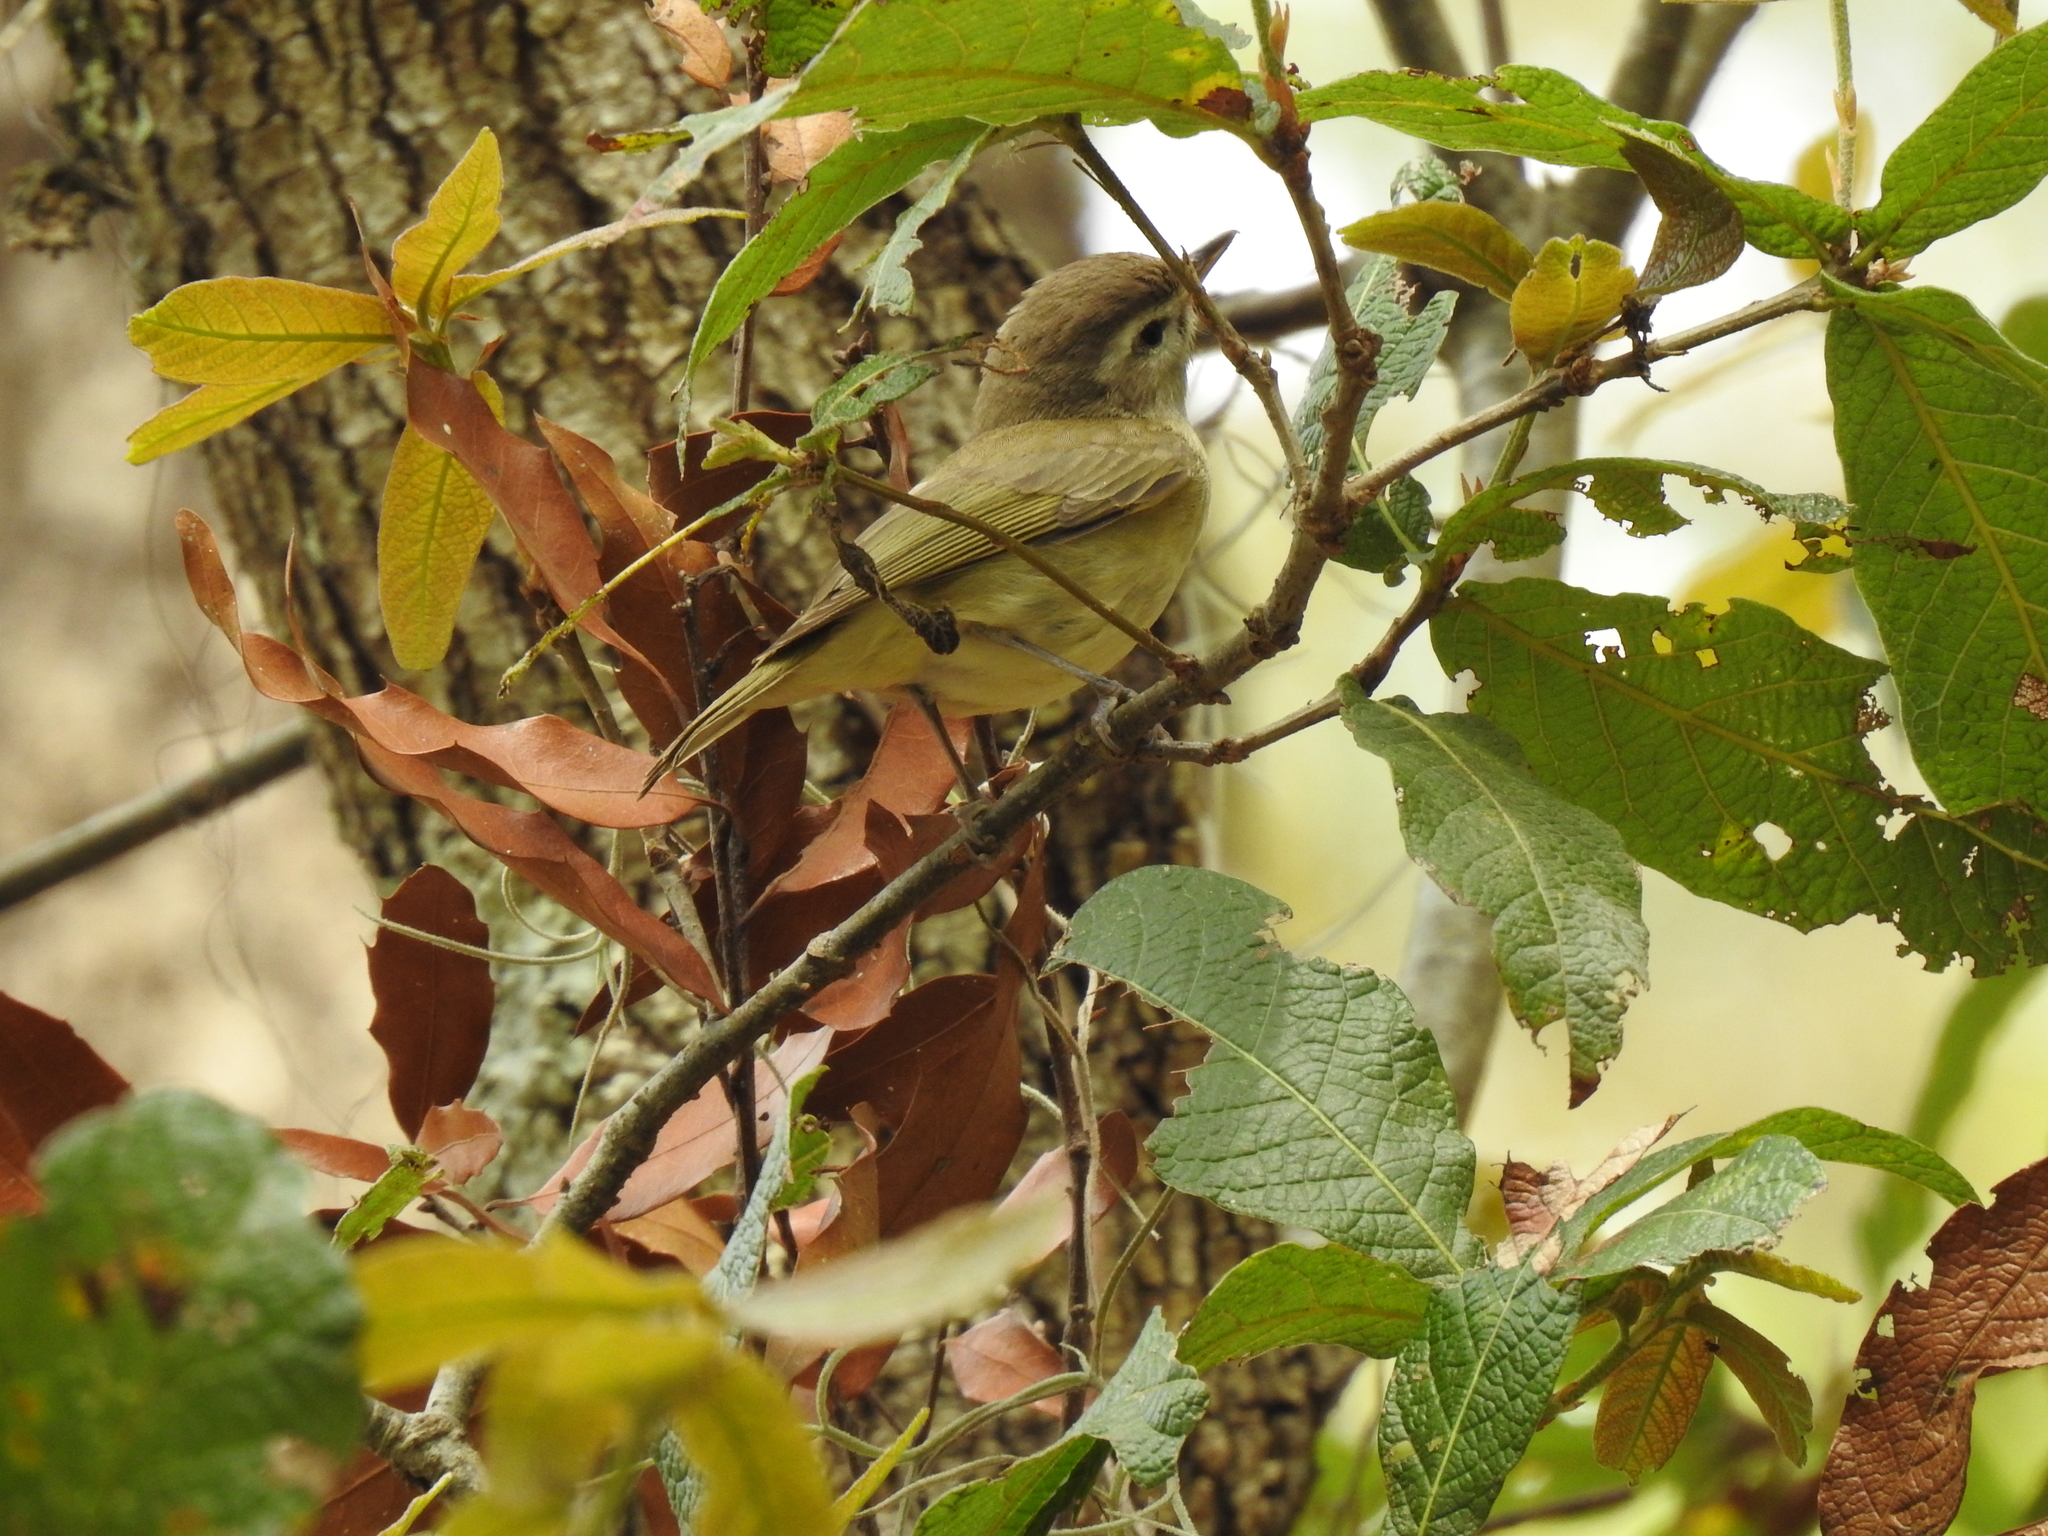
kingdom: Animalia
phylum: Chordata
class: Aves
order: Passeriformes
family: Vireonidae
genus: Vireo
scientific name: Vireo leucophrys
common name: Brown-capped vireo
